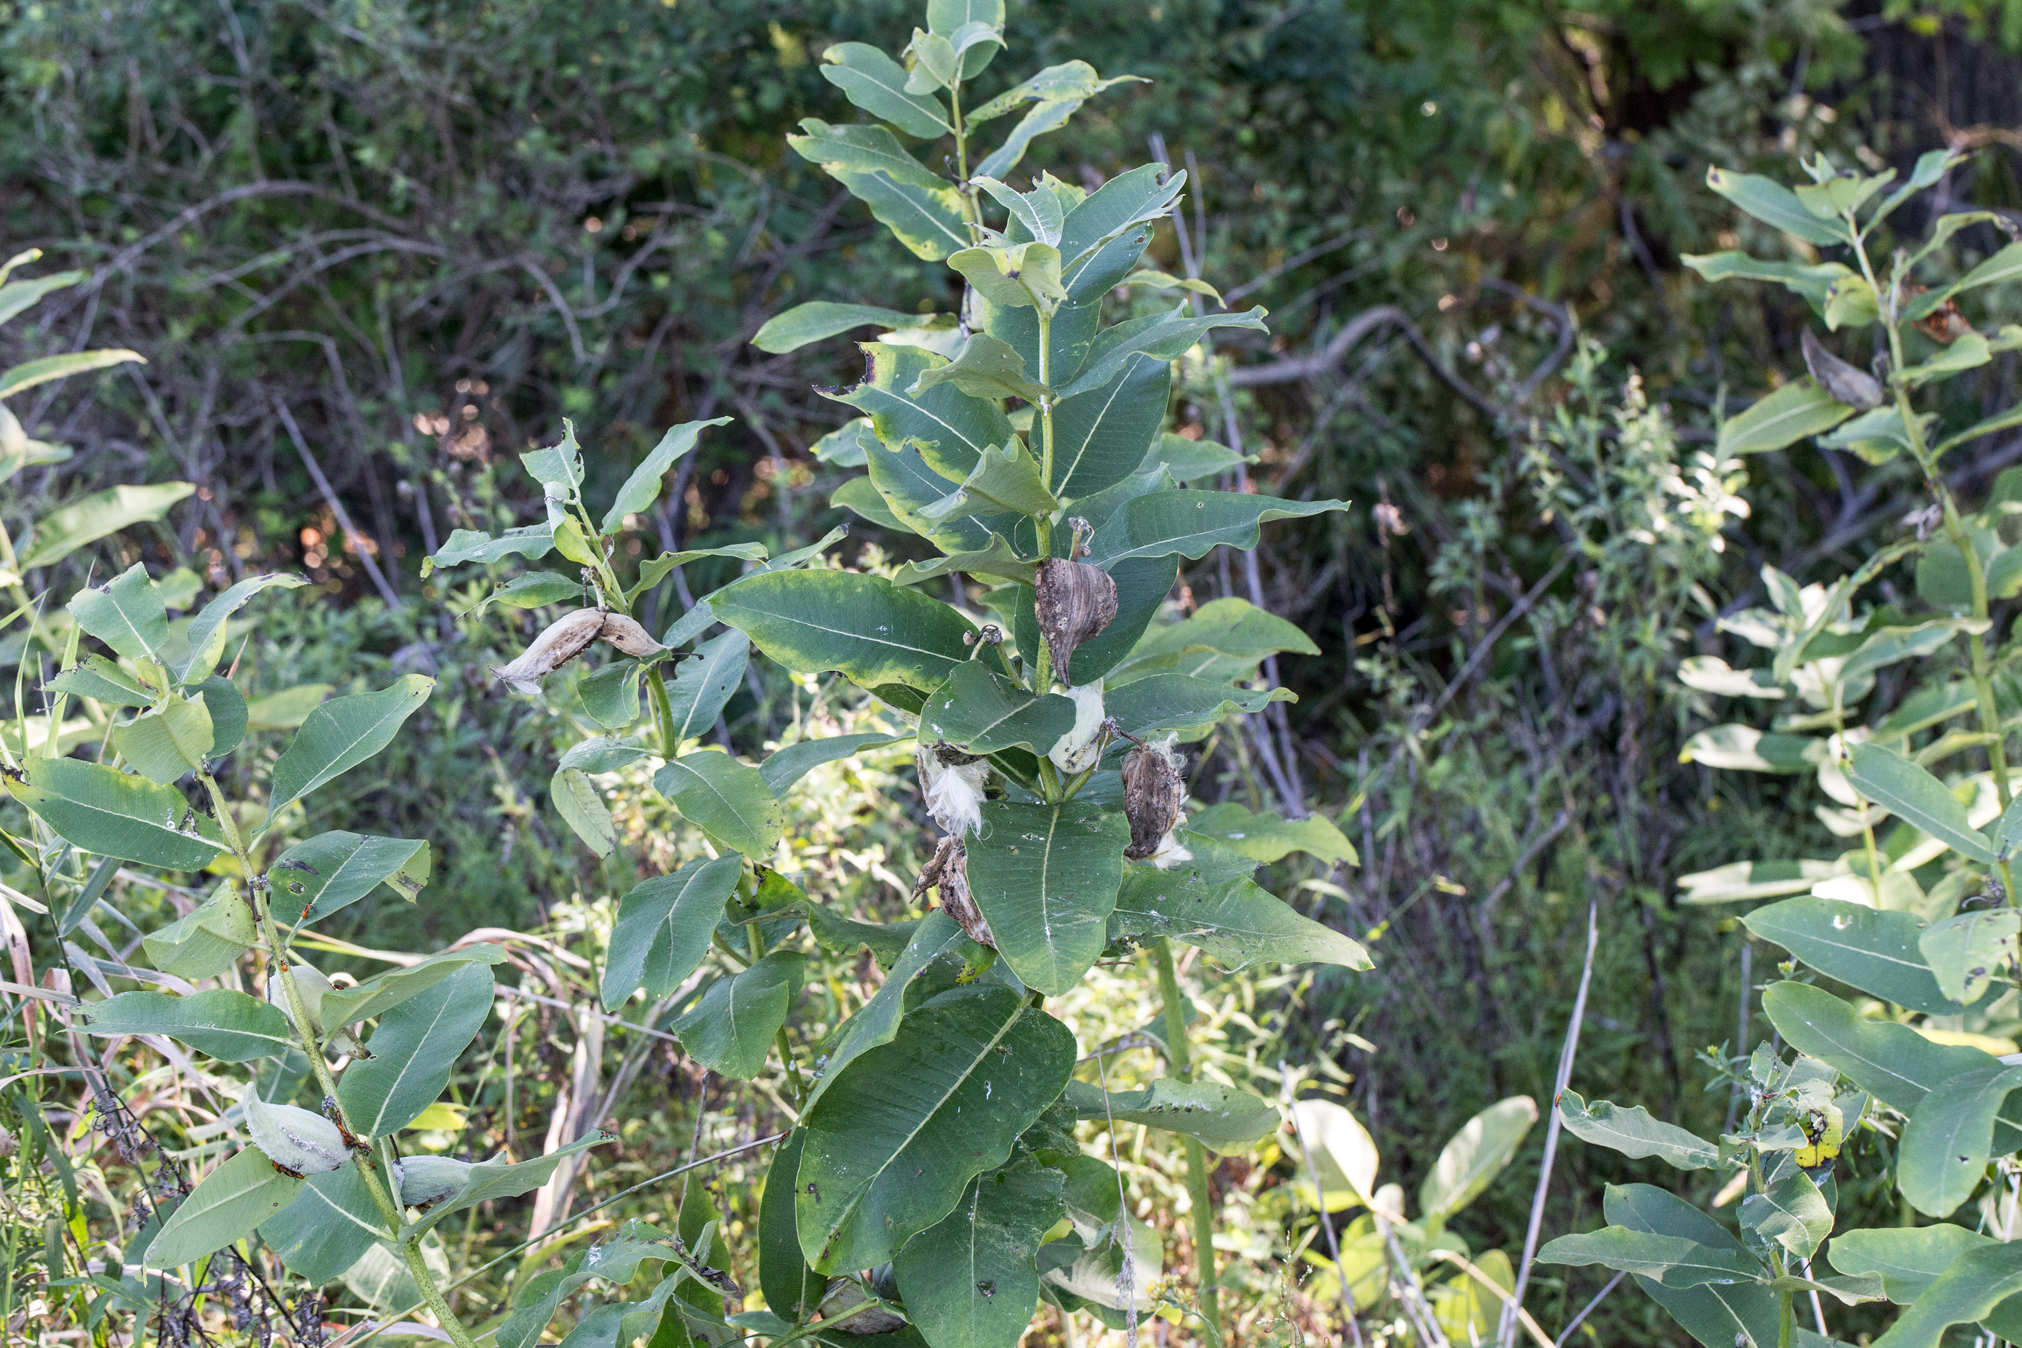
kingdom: Plantae
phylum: Tracheophyta
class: Magnoliopsida
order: Gentianales
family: Apocynaceae
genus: Asclepias
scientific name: Asclepias syriaca
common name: Common milkweed
